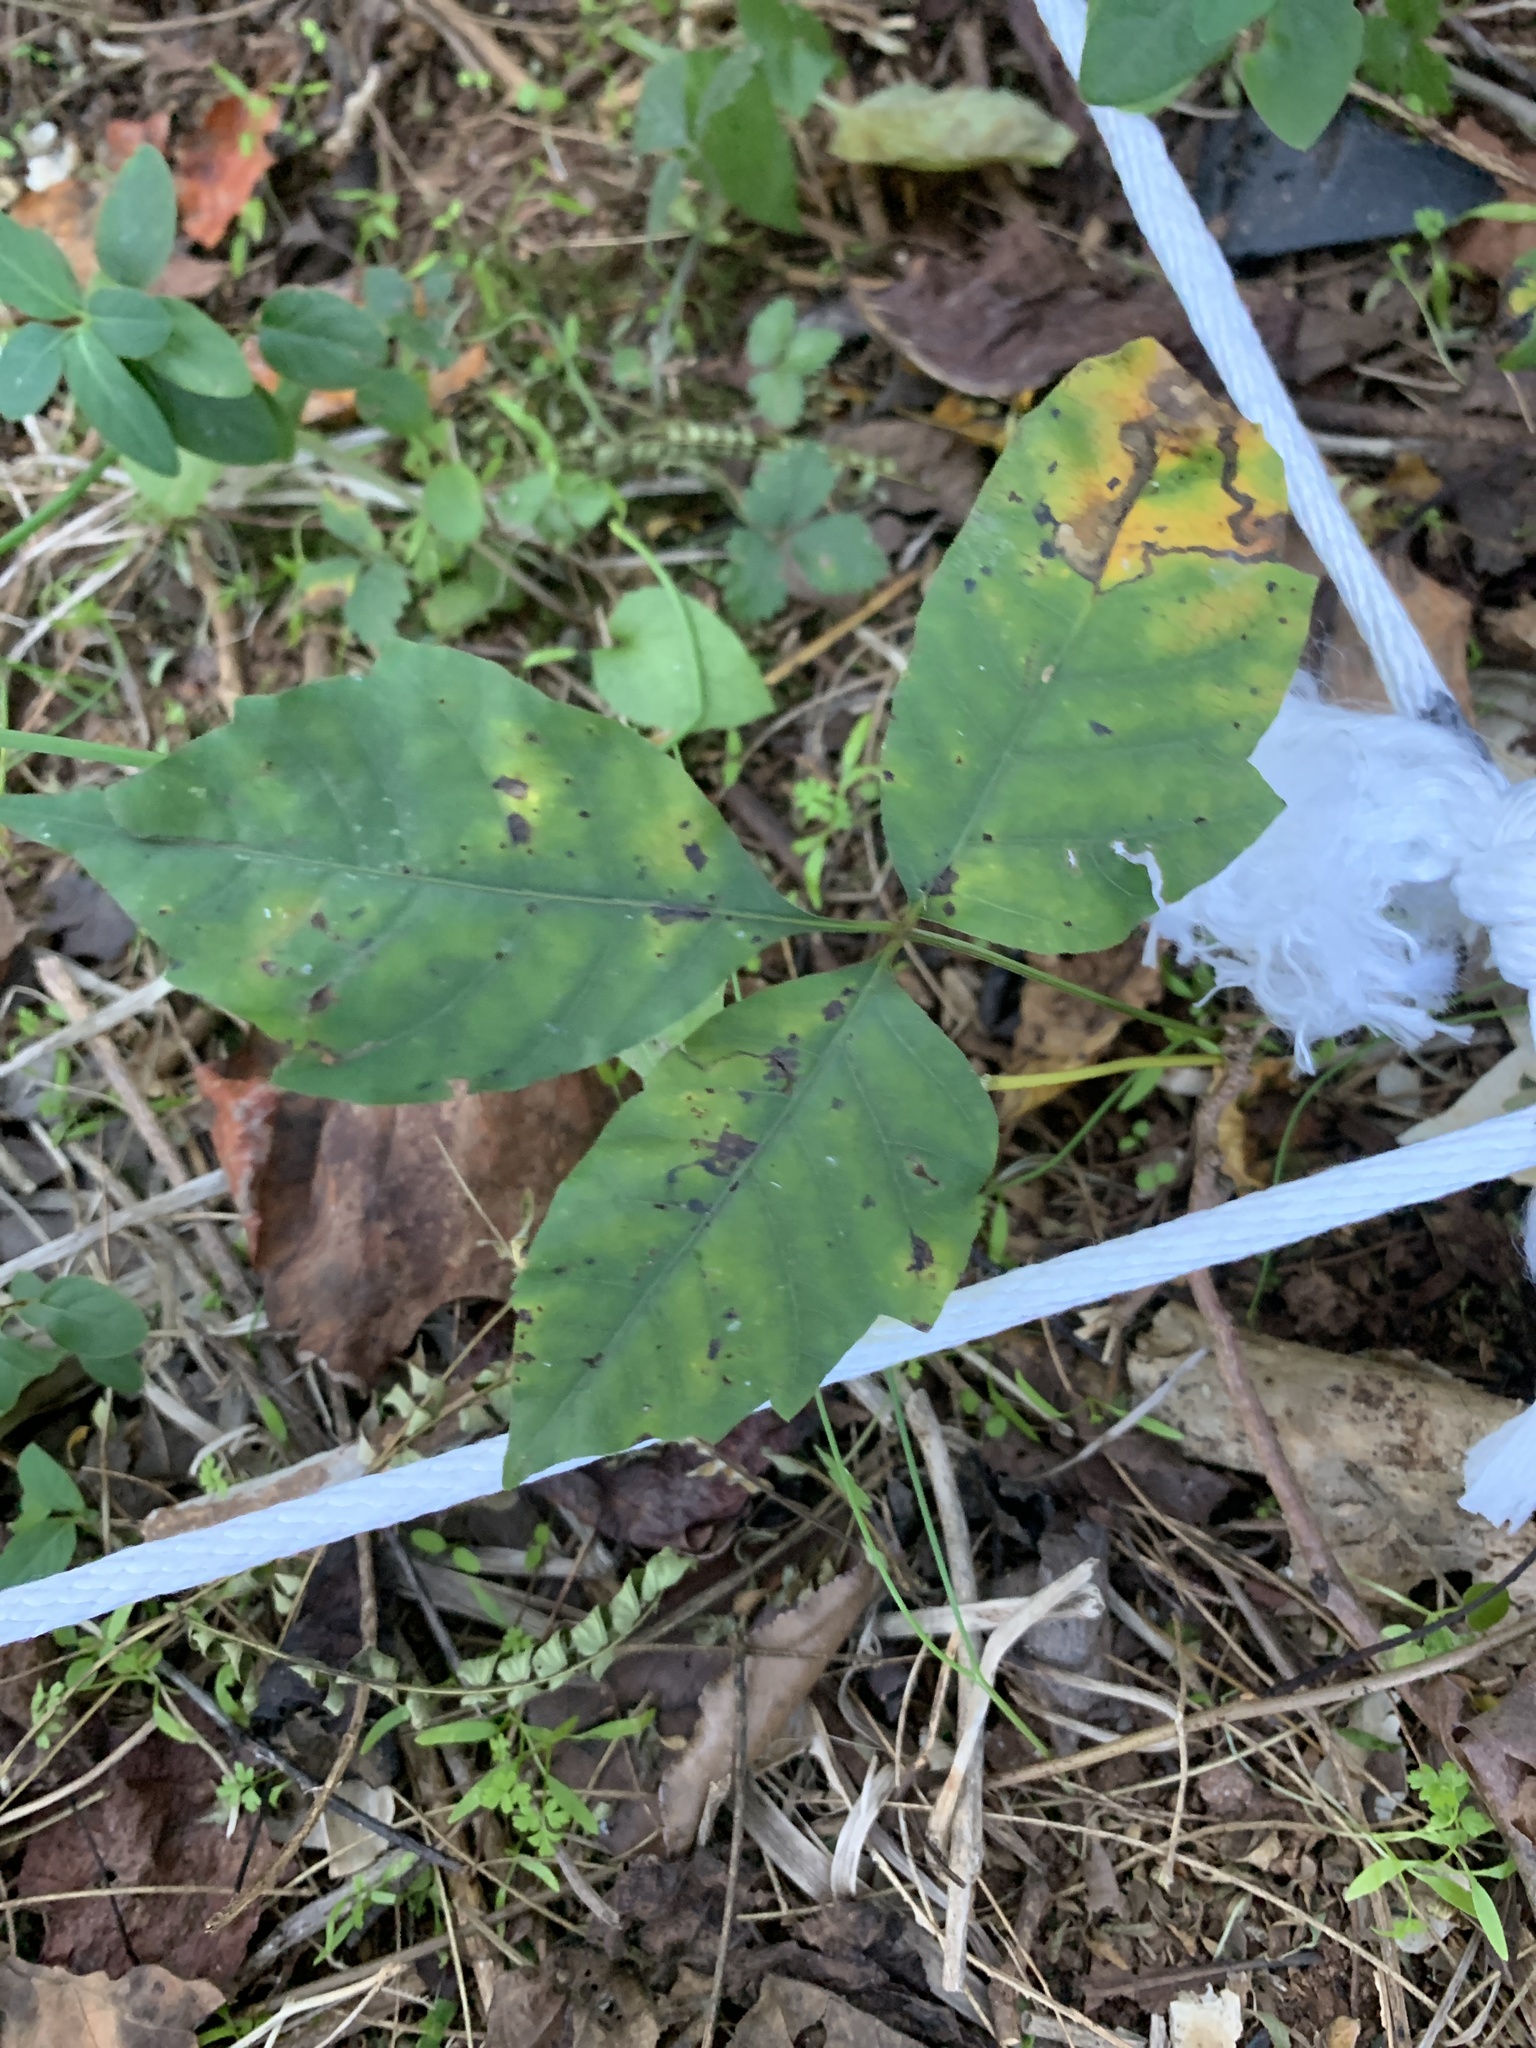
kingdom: Plantae
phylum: Tracheophyta
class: Magnoliopsida
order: Sapindales
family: Anacardiaceae
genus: Toxicodendron
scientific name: Toxicodendron radicans
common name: Poison ivy
